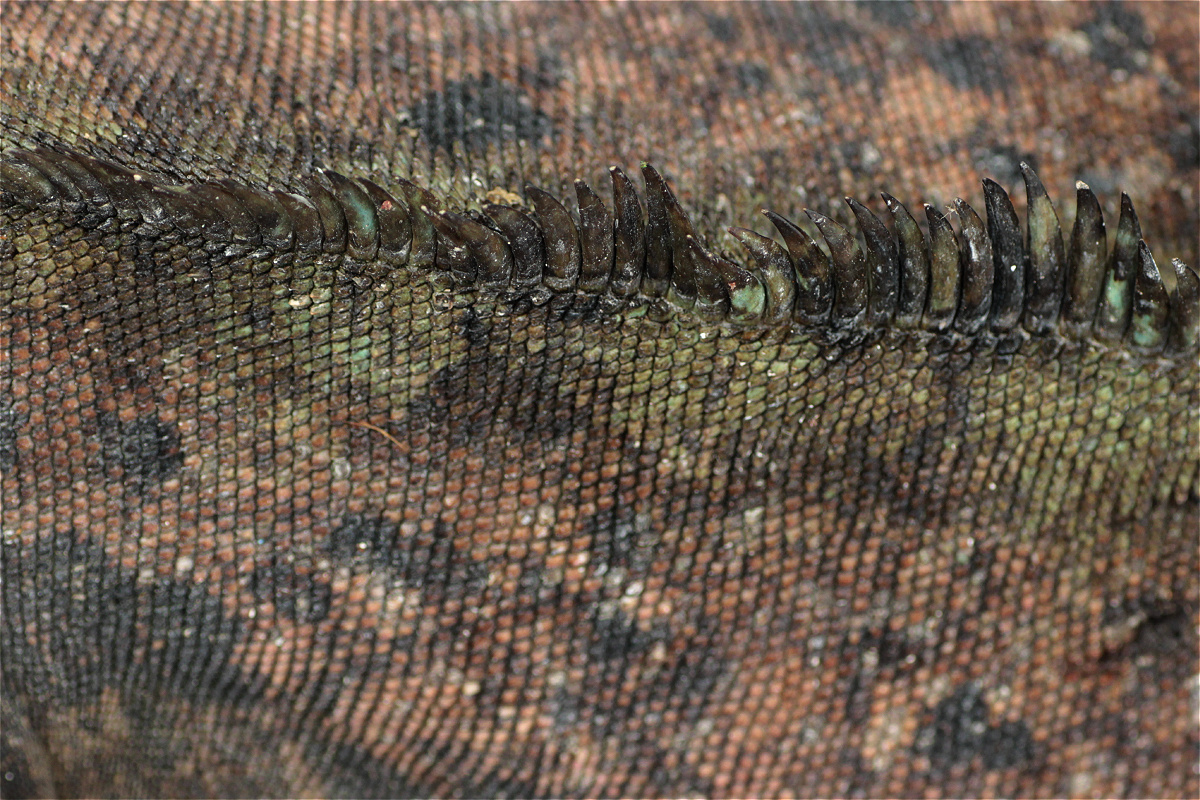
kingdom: Animalia
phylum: Chordata
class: Squamata
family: Iguanidae
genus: Amblyrhynchus
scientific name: Amblyrhynchus cristatus
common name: Marine iguana
